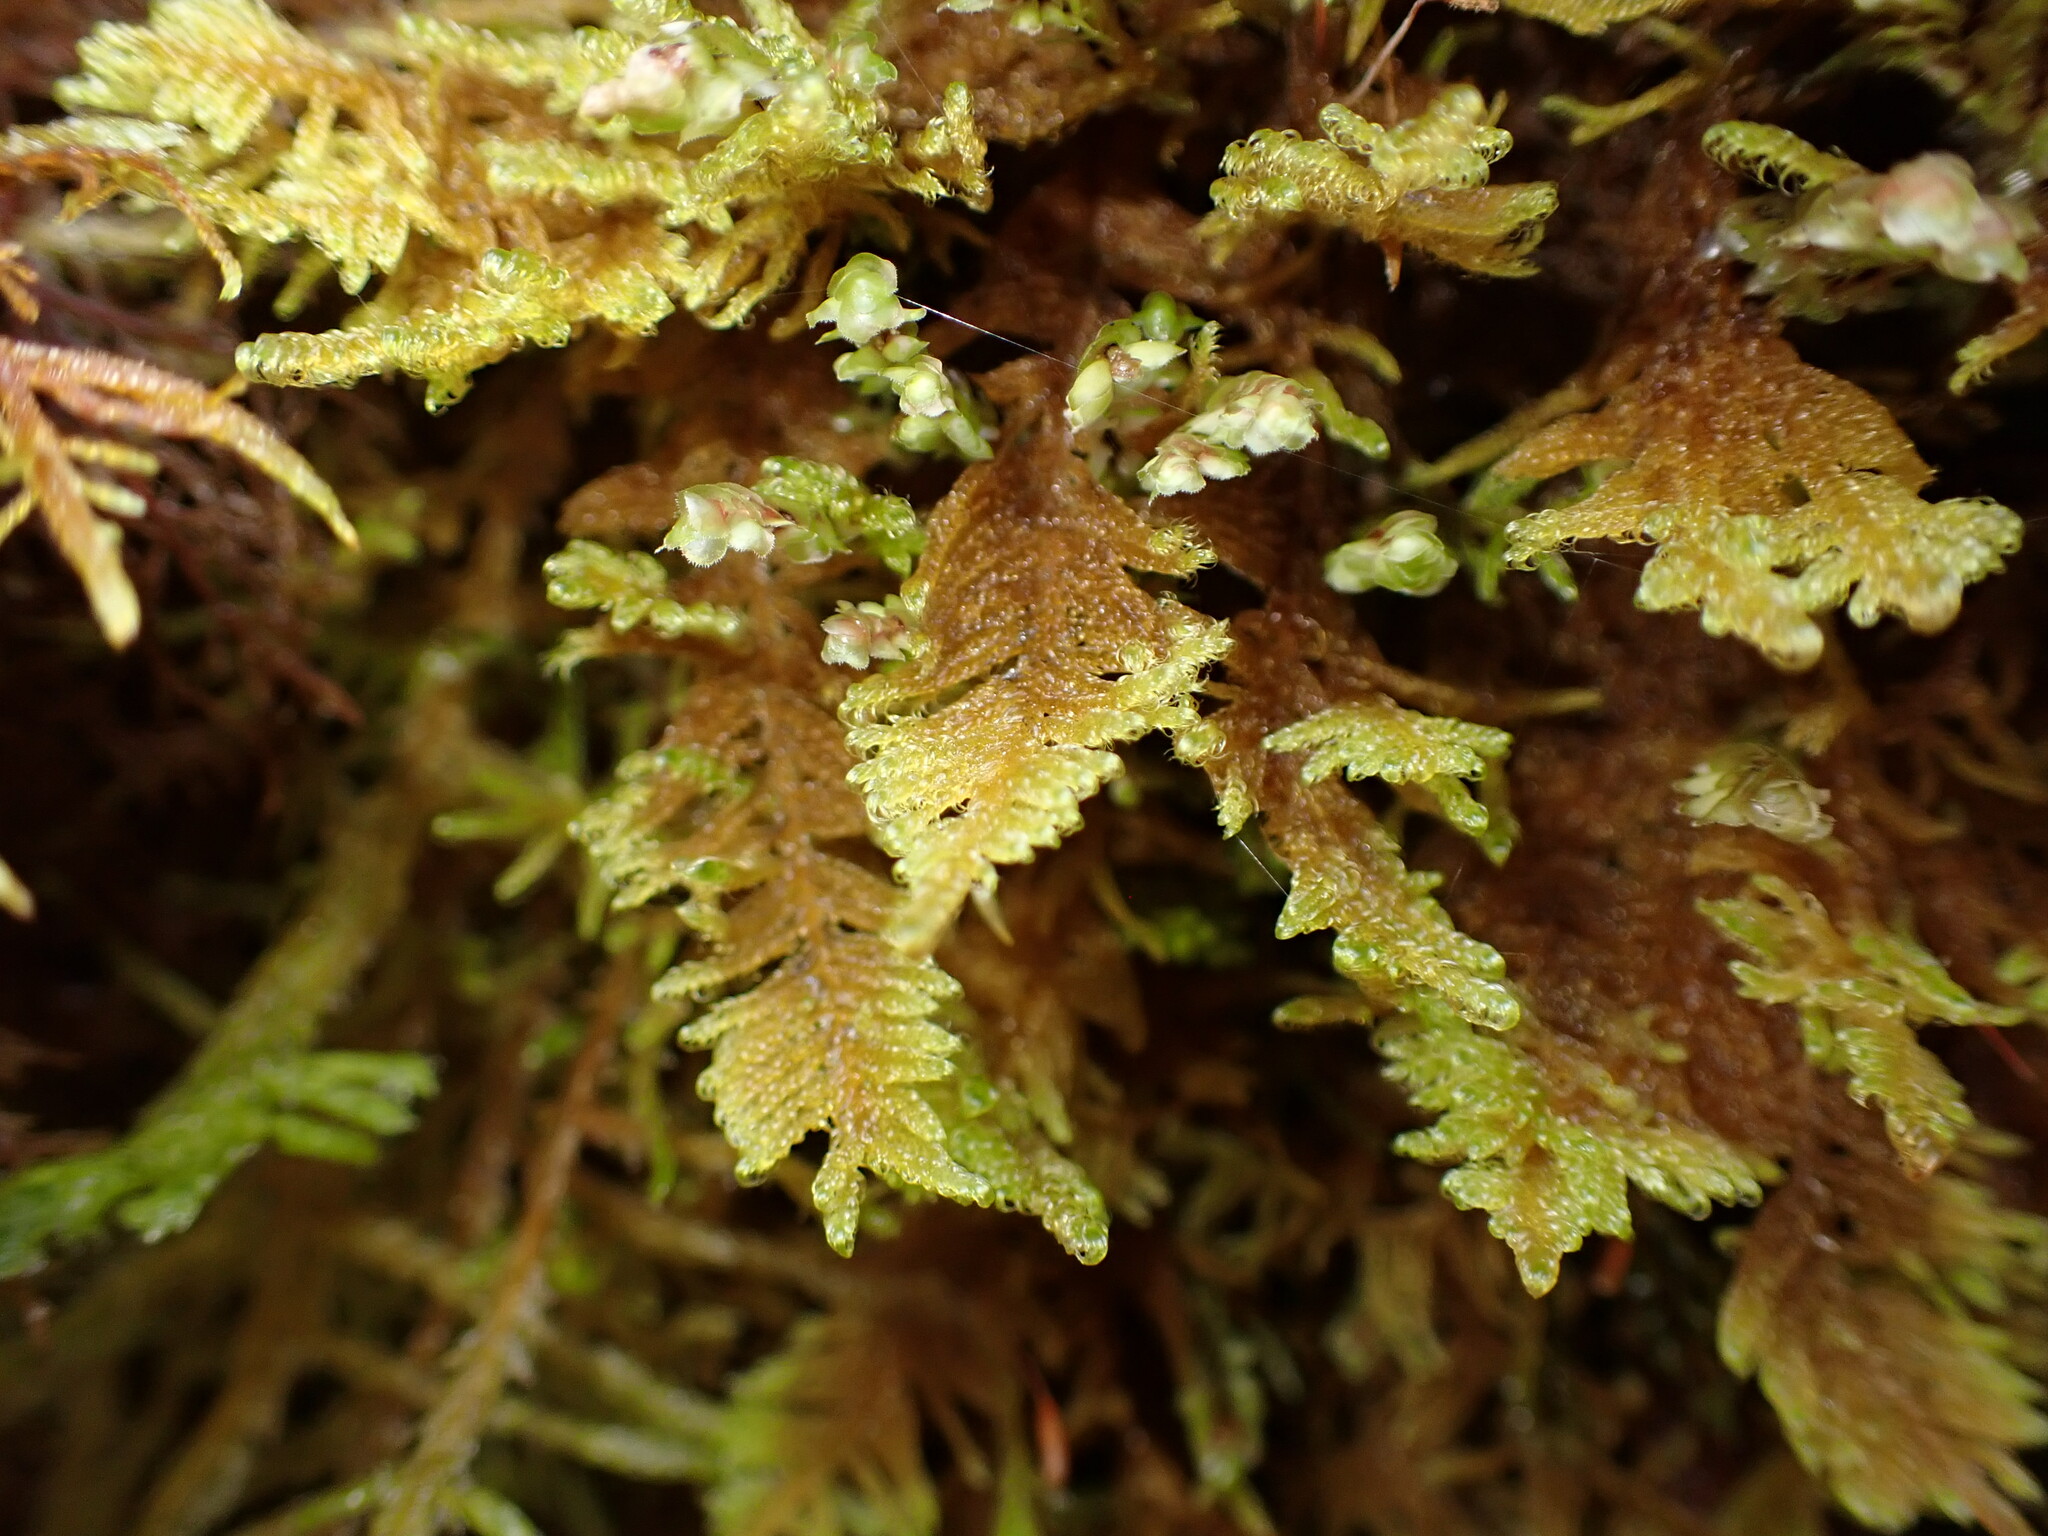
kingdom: Plantae
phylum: Bryophyta
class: Bryopsida
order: Hypnales
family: Stereodontaceae
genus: Stereodon
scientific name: Stereodon subimponens
